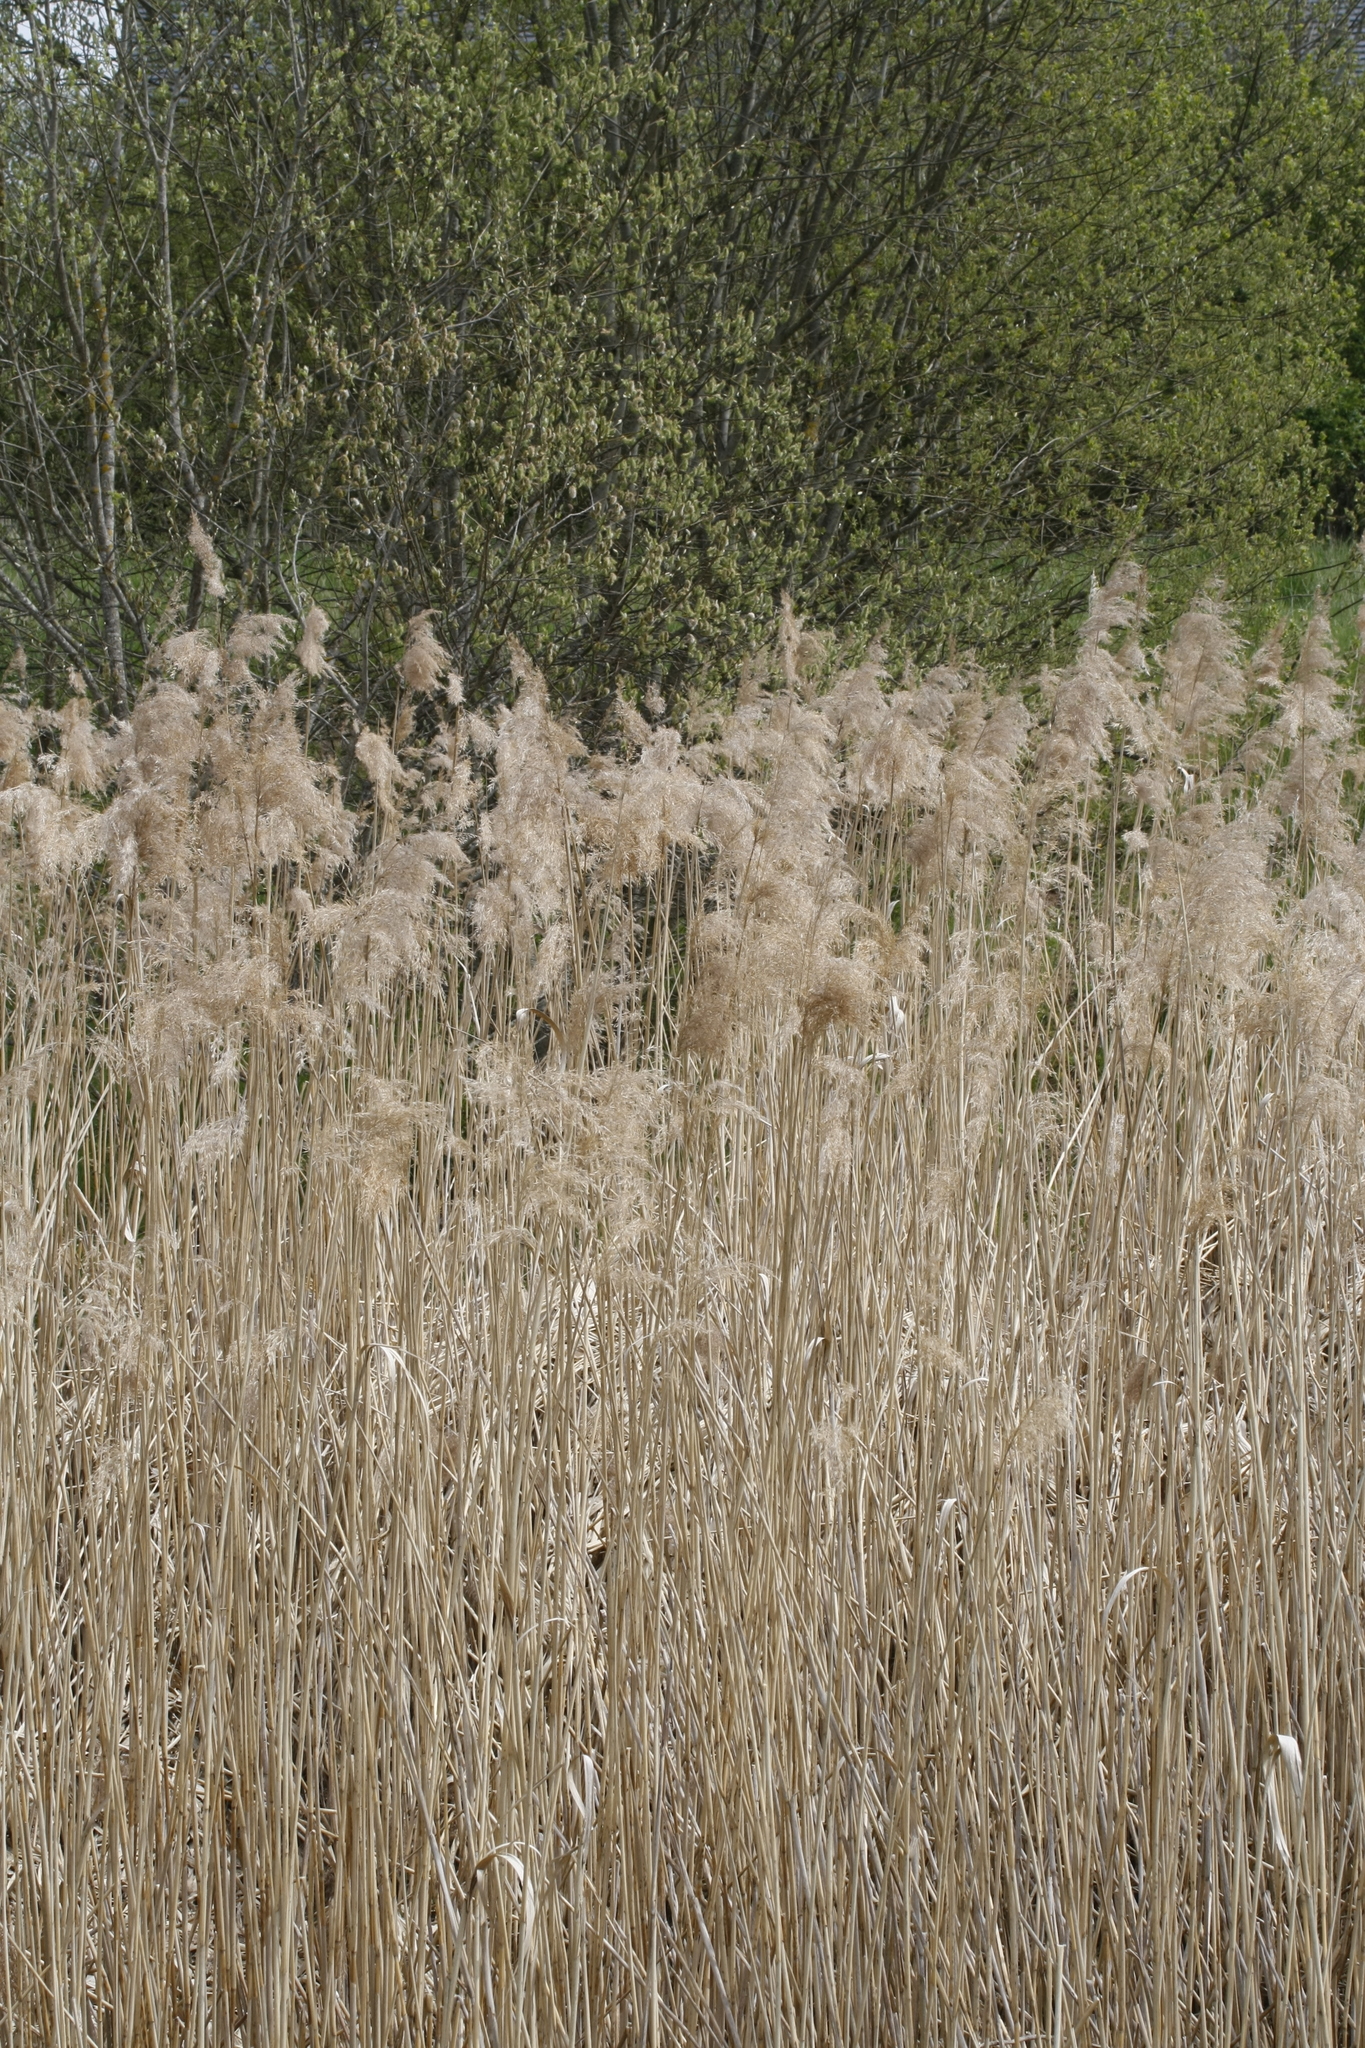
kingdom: Plantae
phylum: Tracheophyta
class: Liliopsida
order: Poales
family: Poaceae
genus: Phragmites
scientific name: Phragmites australis
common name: Common reed
